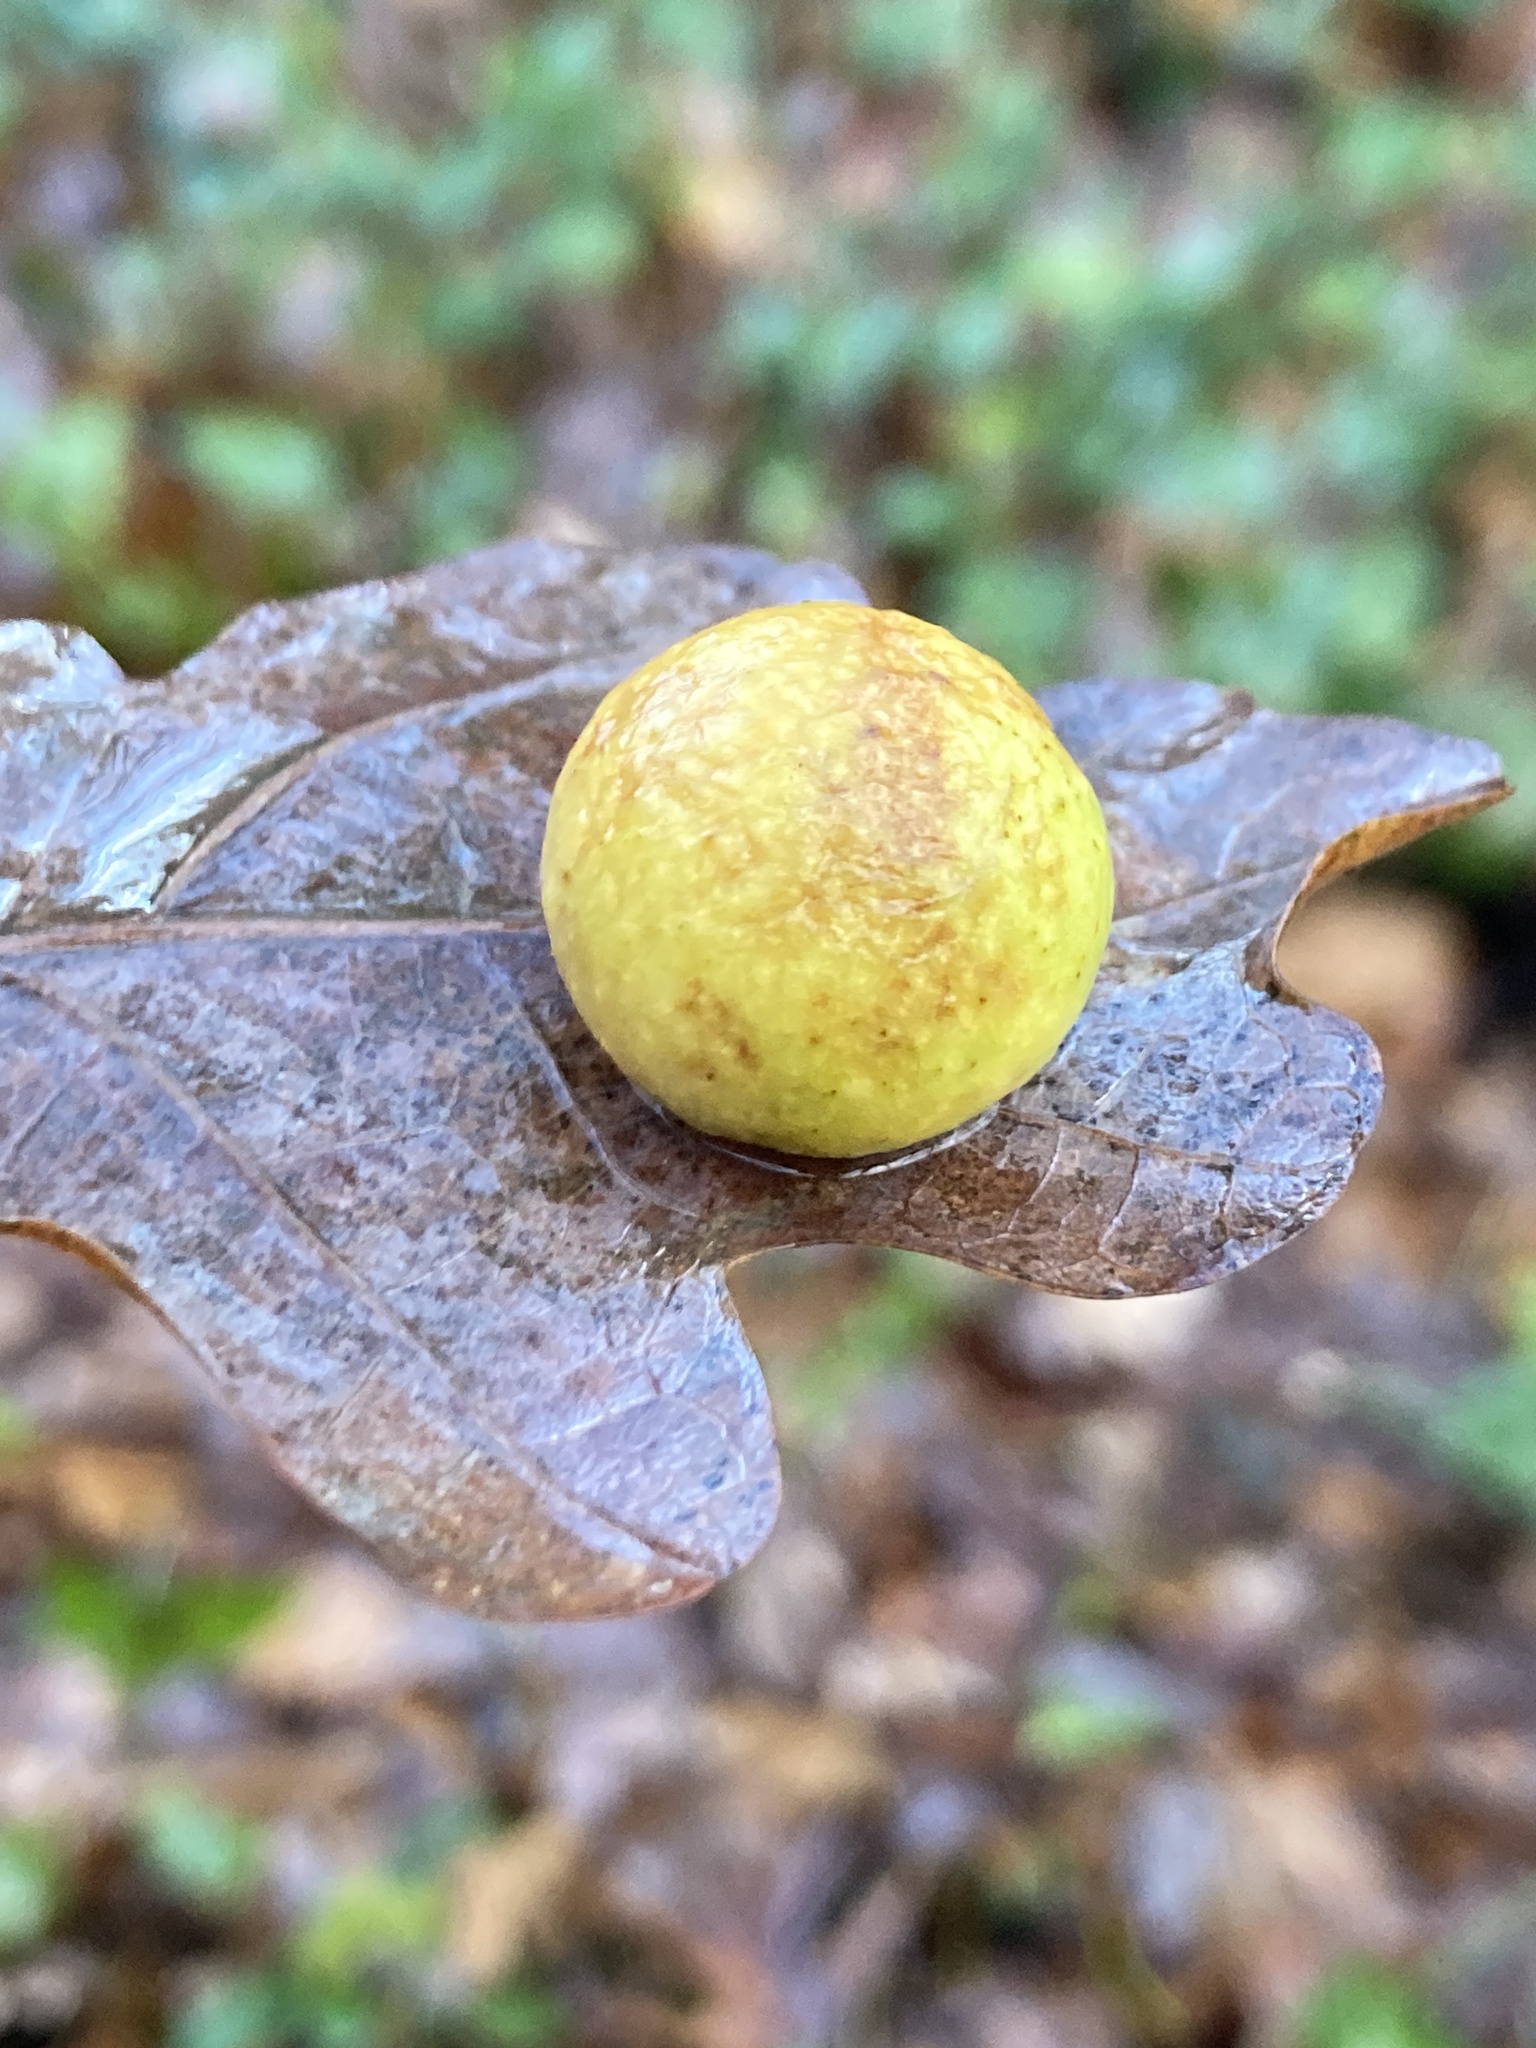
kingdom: Animalia
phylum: Arthropoda
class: Insecta
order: Hymenoptera
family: Cynipidae
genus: Cynips
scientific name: Cynips quercusfolii
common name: Cherry gall
